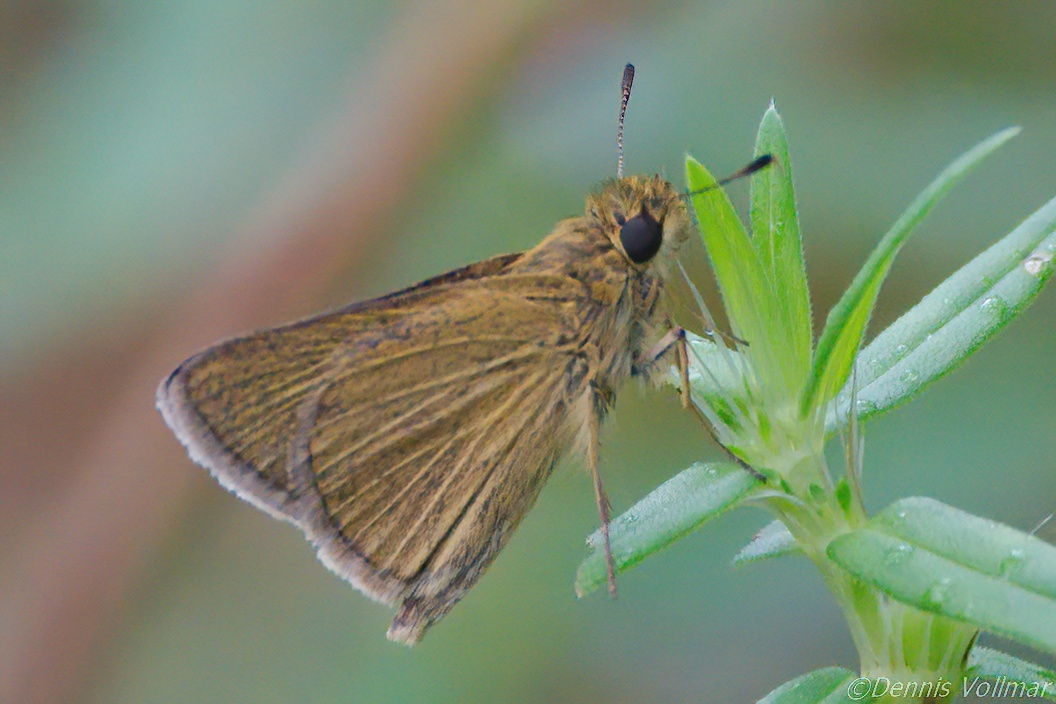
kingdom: Animalia
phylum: Arthropoda
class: Insecta
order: Lepidoptera
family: Hesperiidae
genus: Nastra
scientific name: Nastra lherminier
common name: Swarthy skipper
